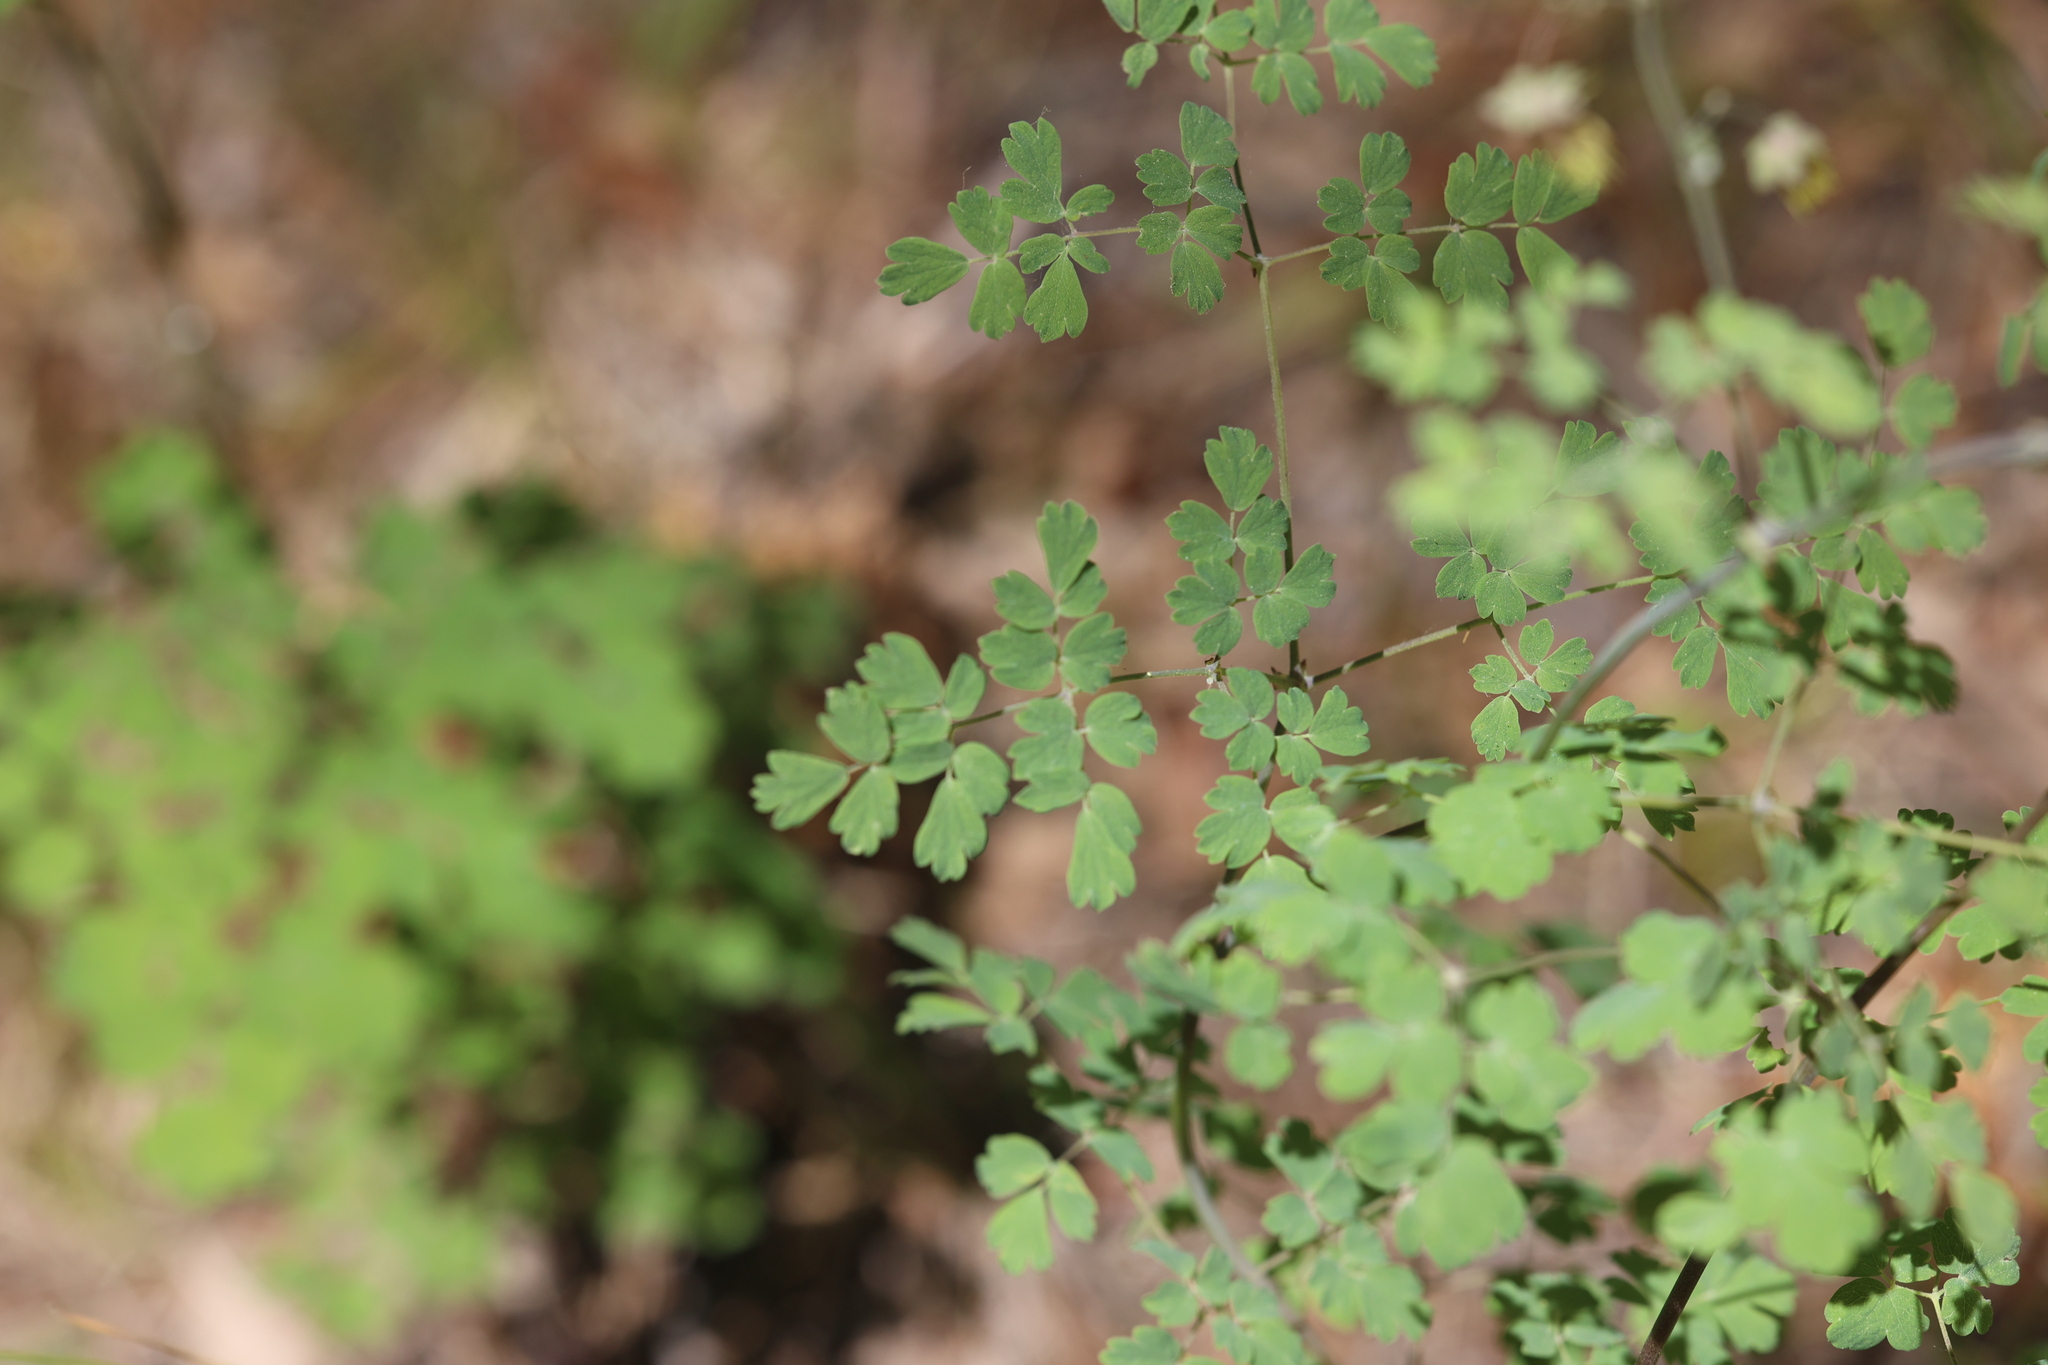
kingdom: Plantae
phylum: Tracheophyta
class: Magnoliopsida
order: Ranunculales
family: Ranunculaceae
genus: Thalictrum
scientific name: Thalictrum fendleri
